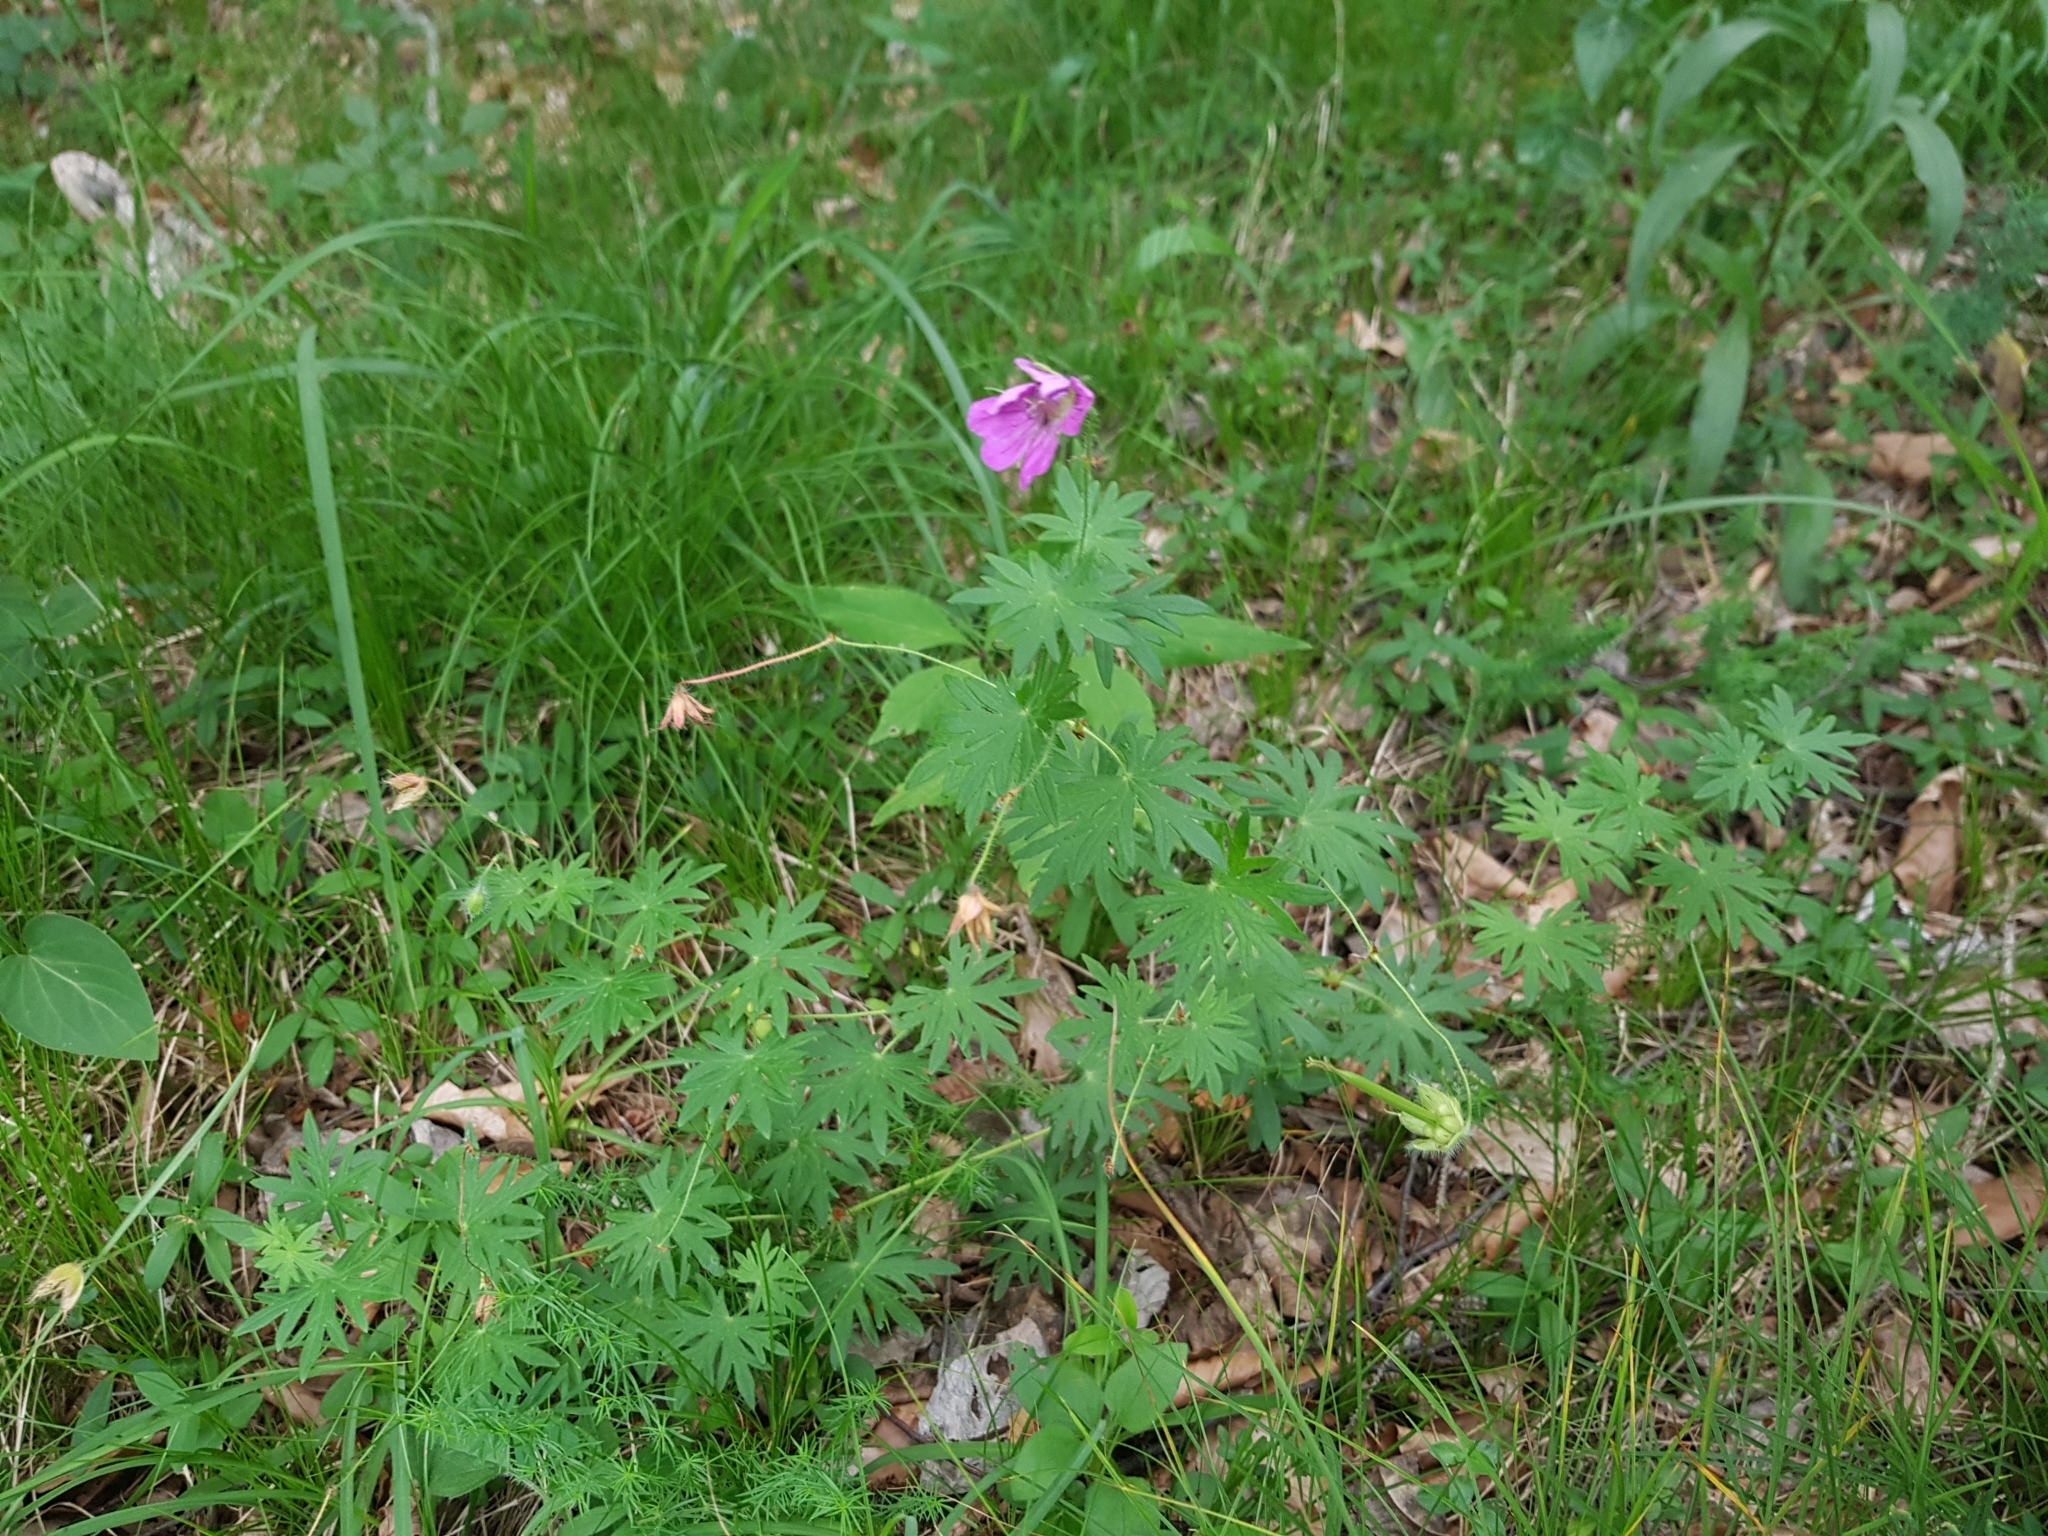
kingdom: Plantae
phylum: Tracheophyta
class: Magnoliopsida
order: Geraniales
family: Geraniaceae
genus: Geranium
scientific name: Geranium sanguineum
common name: Bloody crane's-bill
